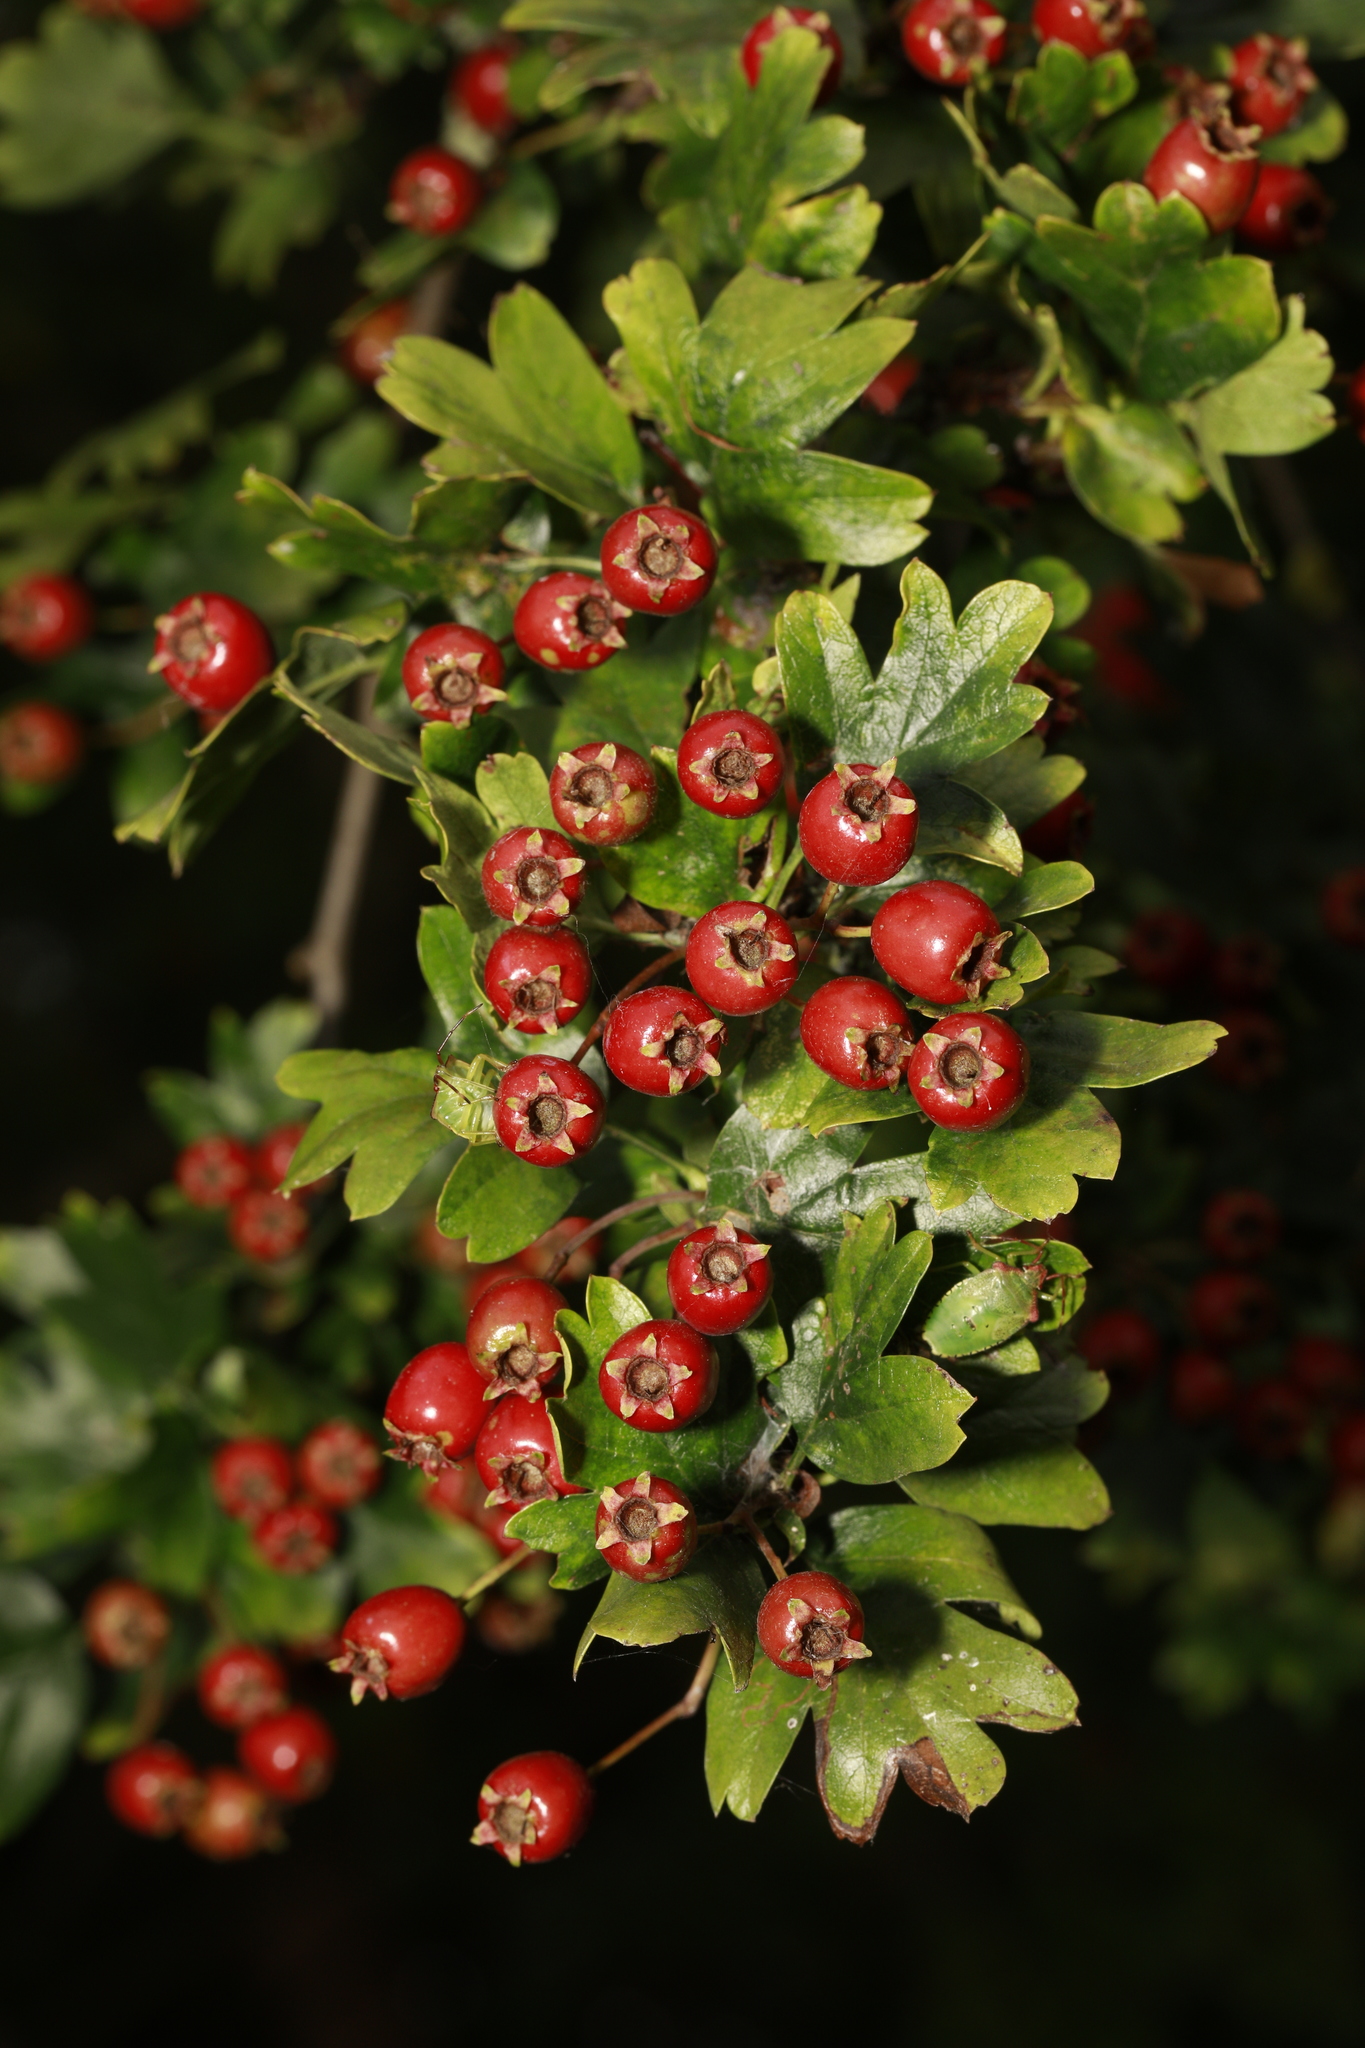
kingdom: Plantae
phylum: Tracheophyta
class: Magnoliopsida
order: Rosales
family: Rosaceae
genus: Crataegus
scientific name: Crataegus monogyna
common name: Hawthorn
